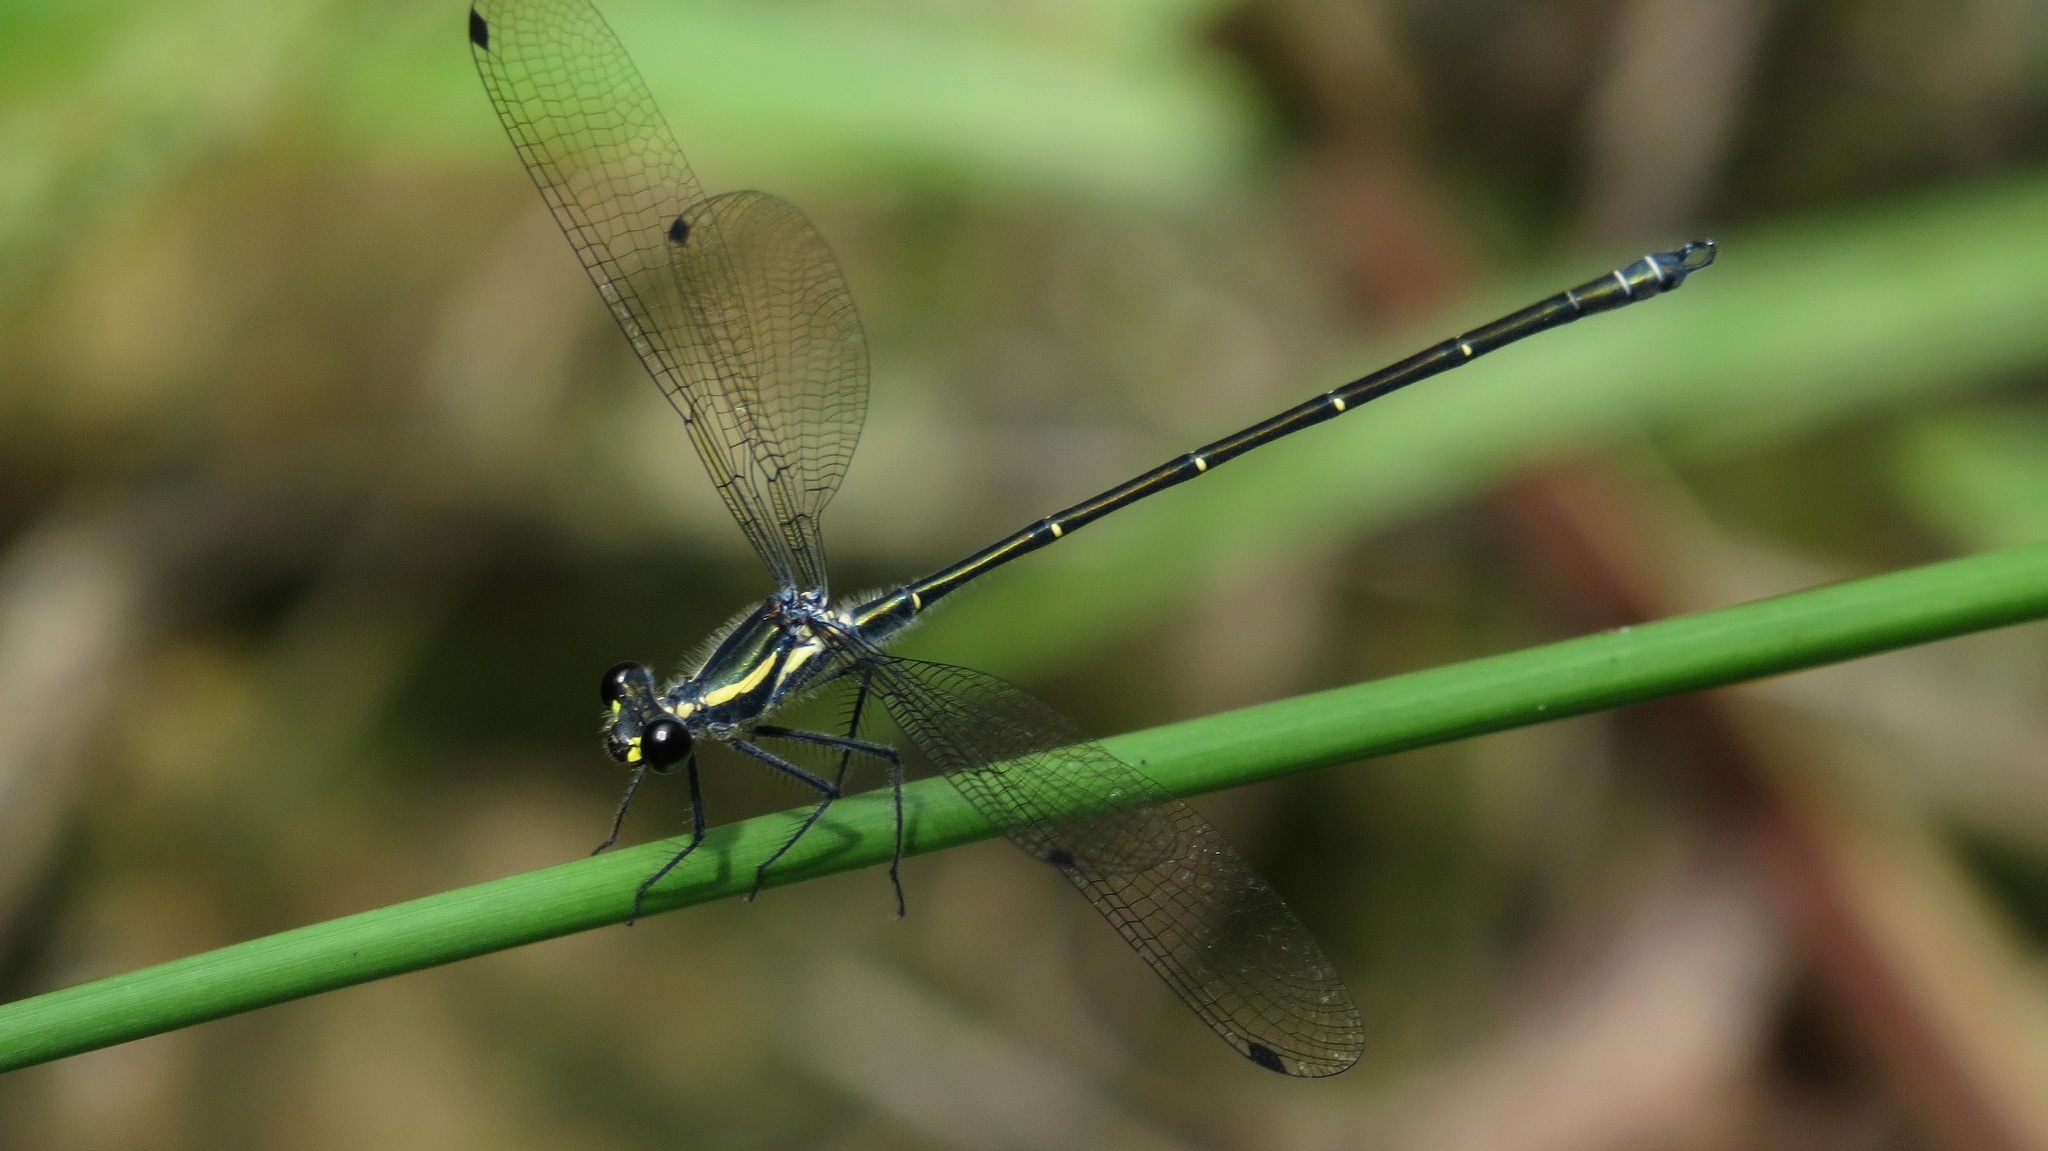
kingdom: Animalia
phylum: Arthropoda
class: Insecta
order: Odonata
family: Argiolestidae
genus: Austroargiolestes
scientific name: Austroargiolestes icteromelas
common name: Common flatwing
